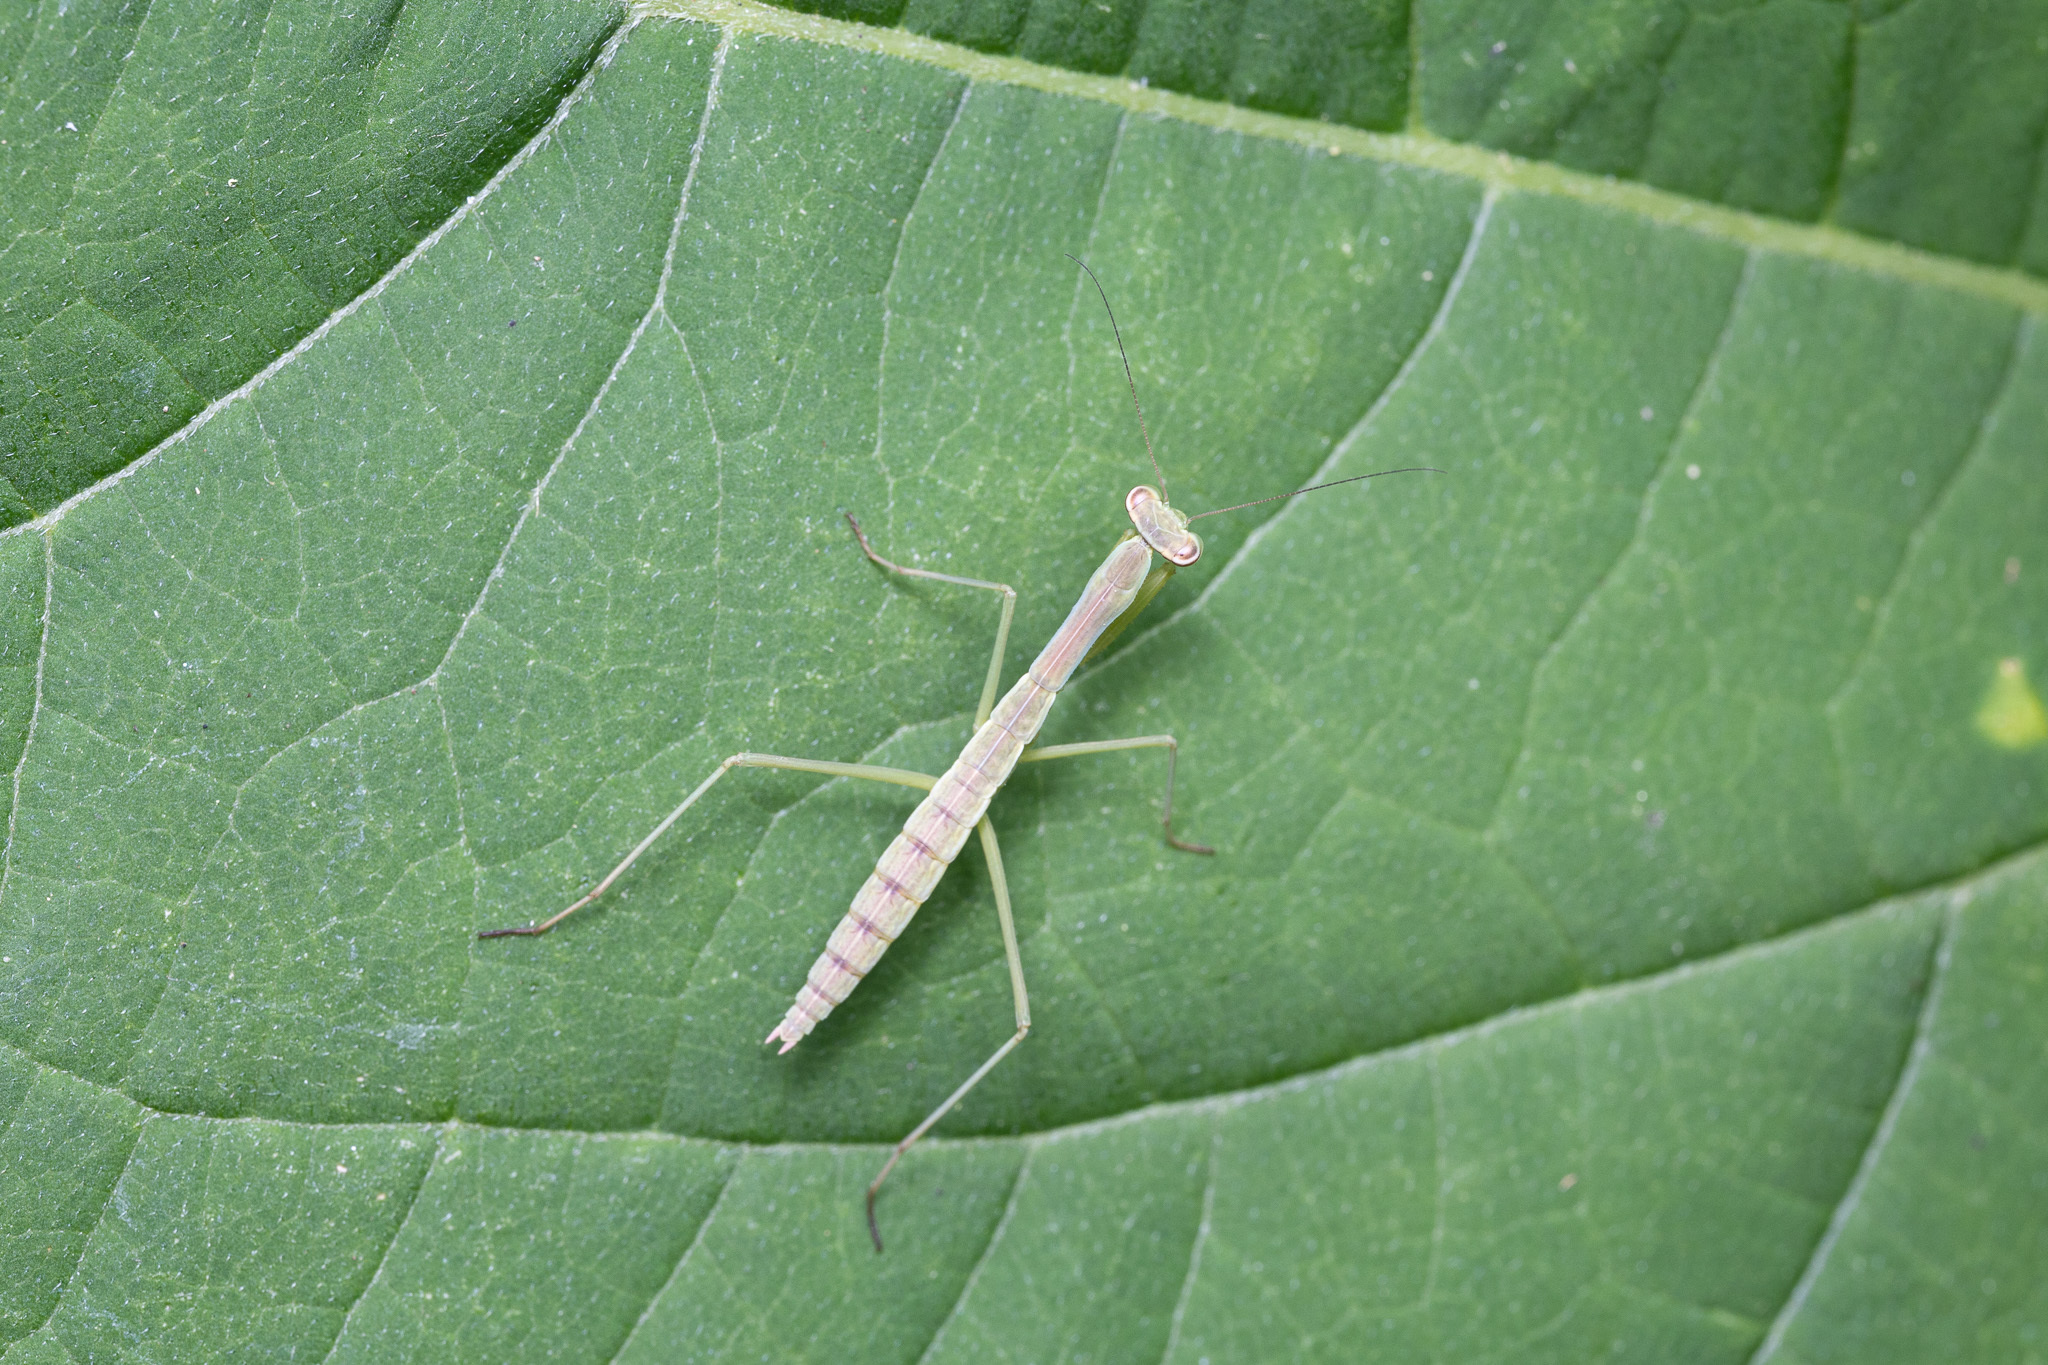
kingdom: Animalia
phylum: Arthropoda
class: Insecta
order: Mantodea
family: Mantidae
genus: Stagmomantis
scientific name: Stagmomantis carolina
